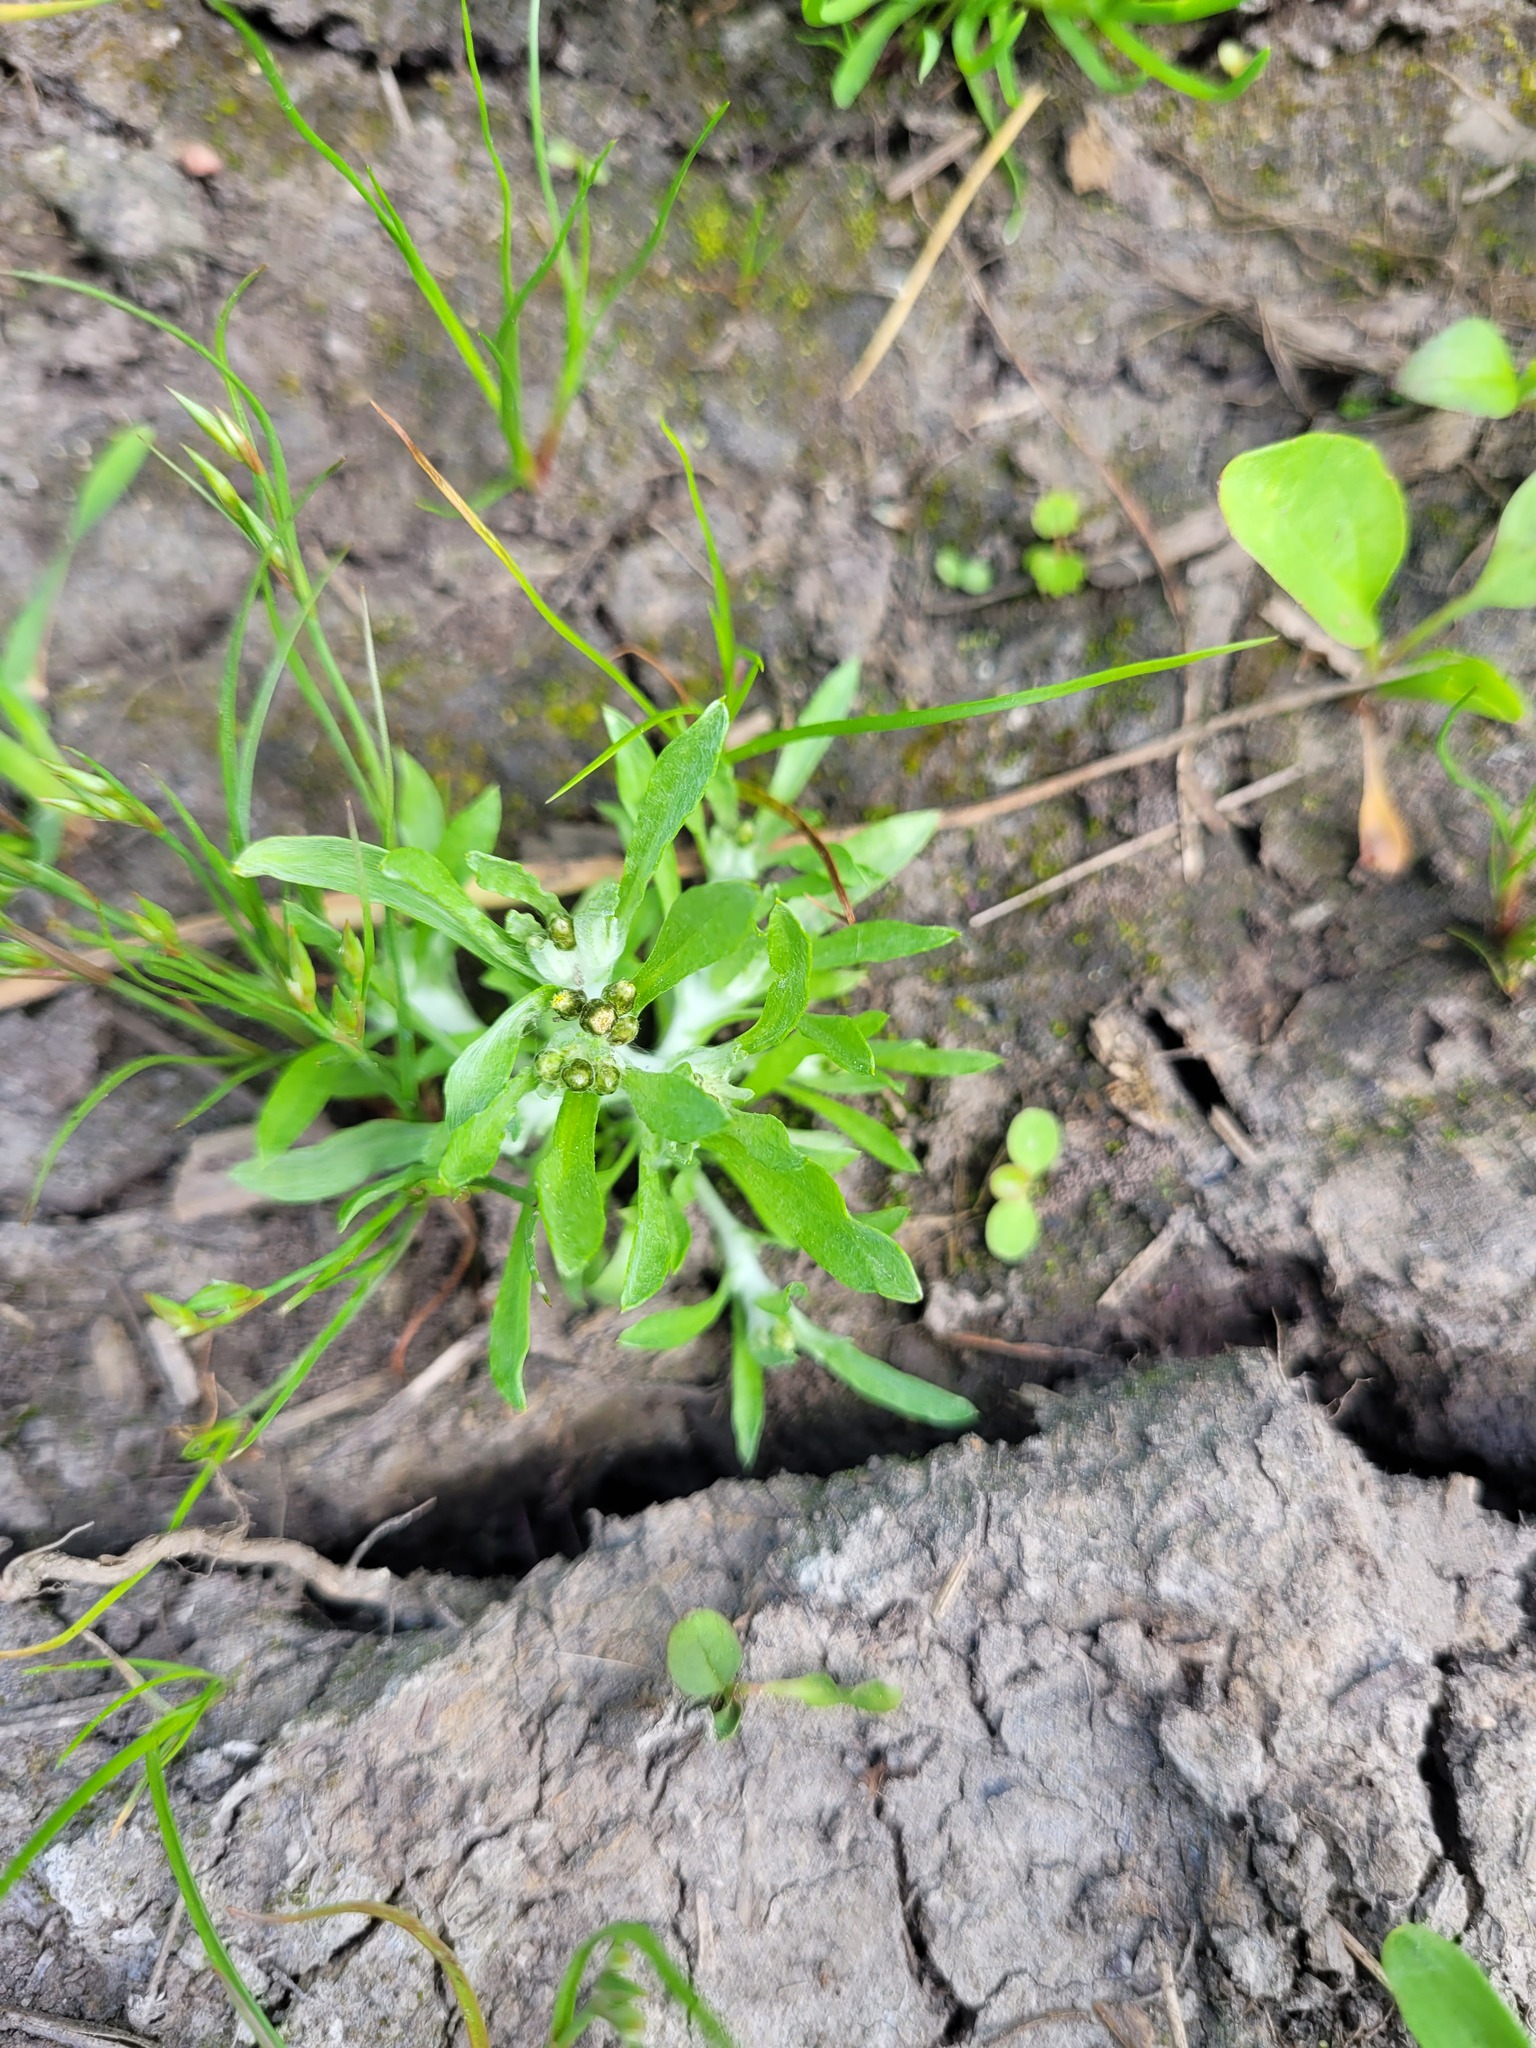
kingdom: Plantae
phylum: Tracheophyta
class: Magnoliopsida
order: Asterales
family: Asteraceae
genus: Gnaphalium
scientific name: Gnaphalium rossicum
